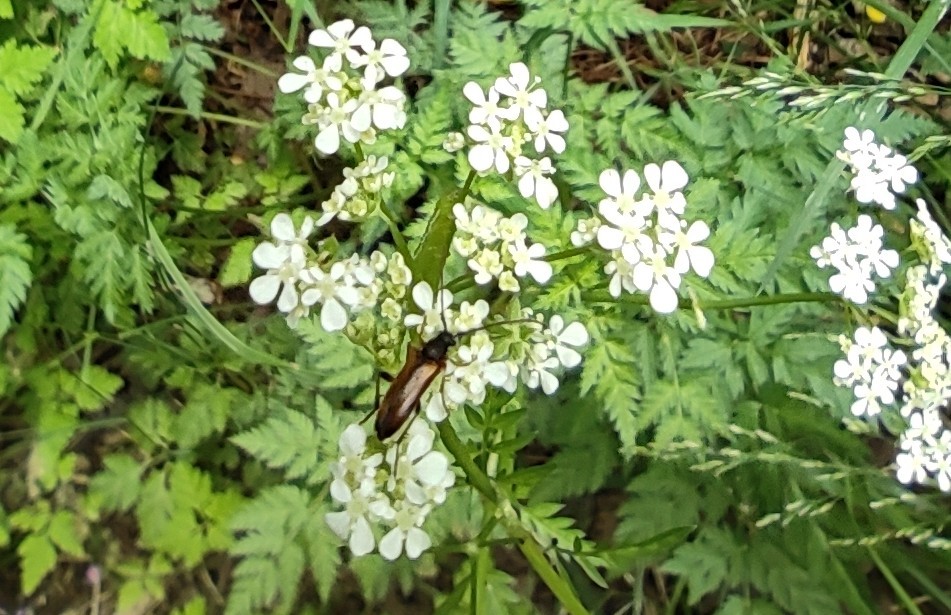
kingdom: Animalia
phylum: Arthropoda
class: Insecta
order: Coleoptera
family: Cerambycidae
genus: Alosterna
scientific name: Alosterna tabacicolor
